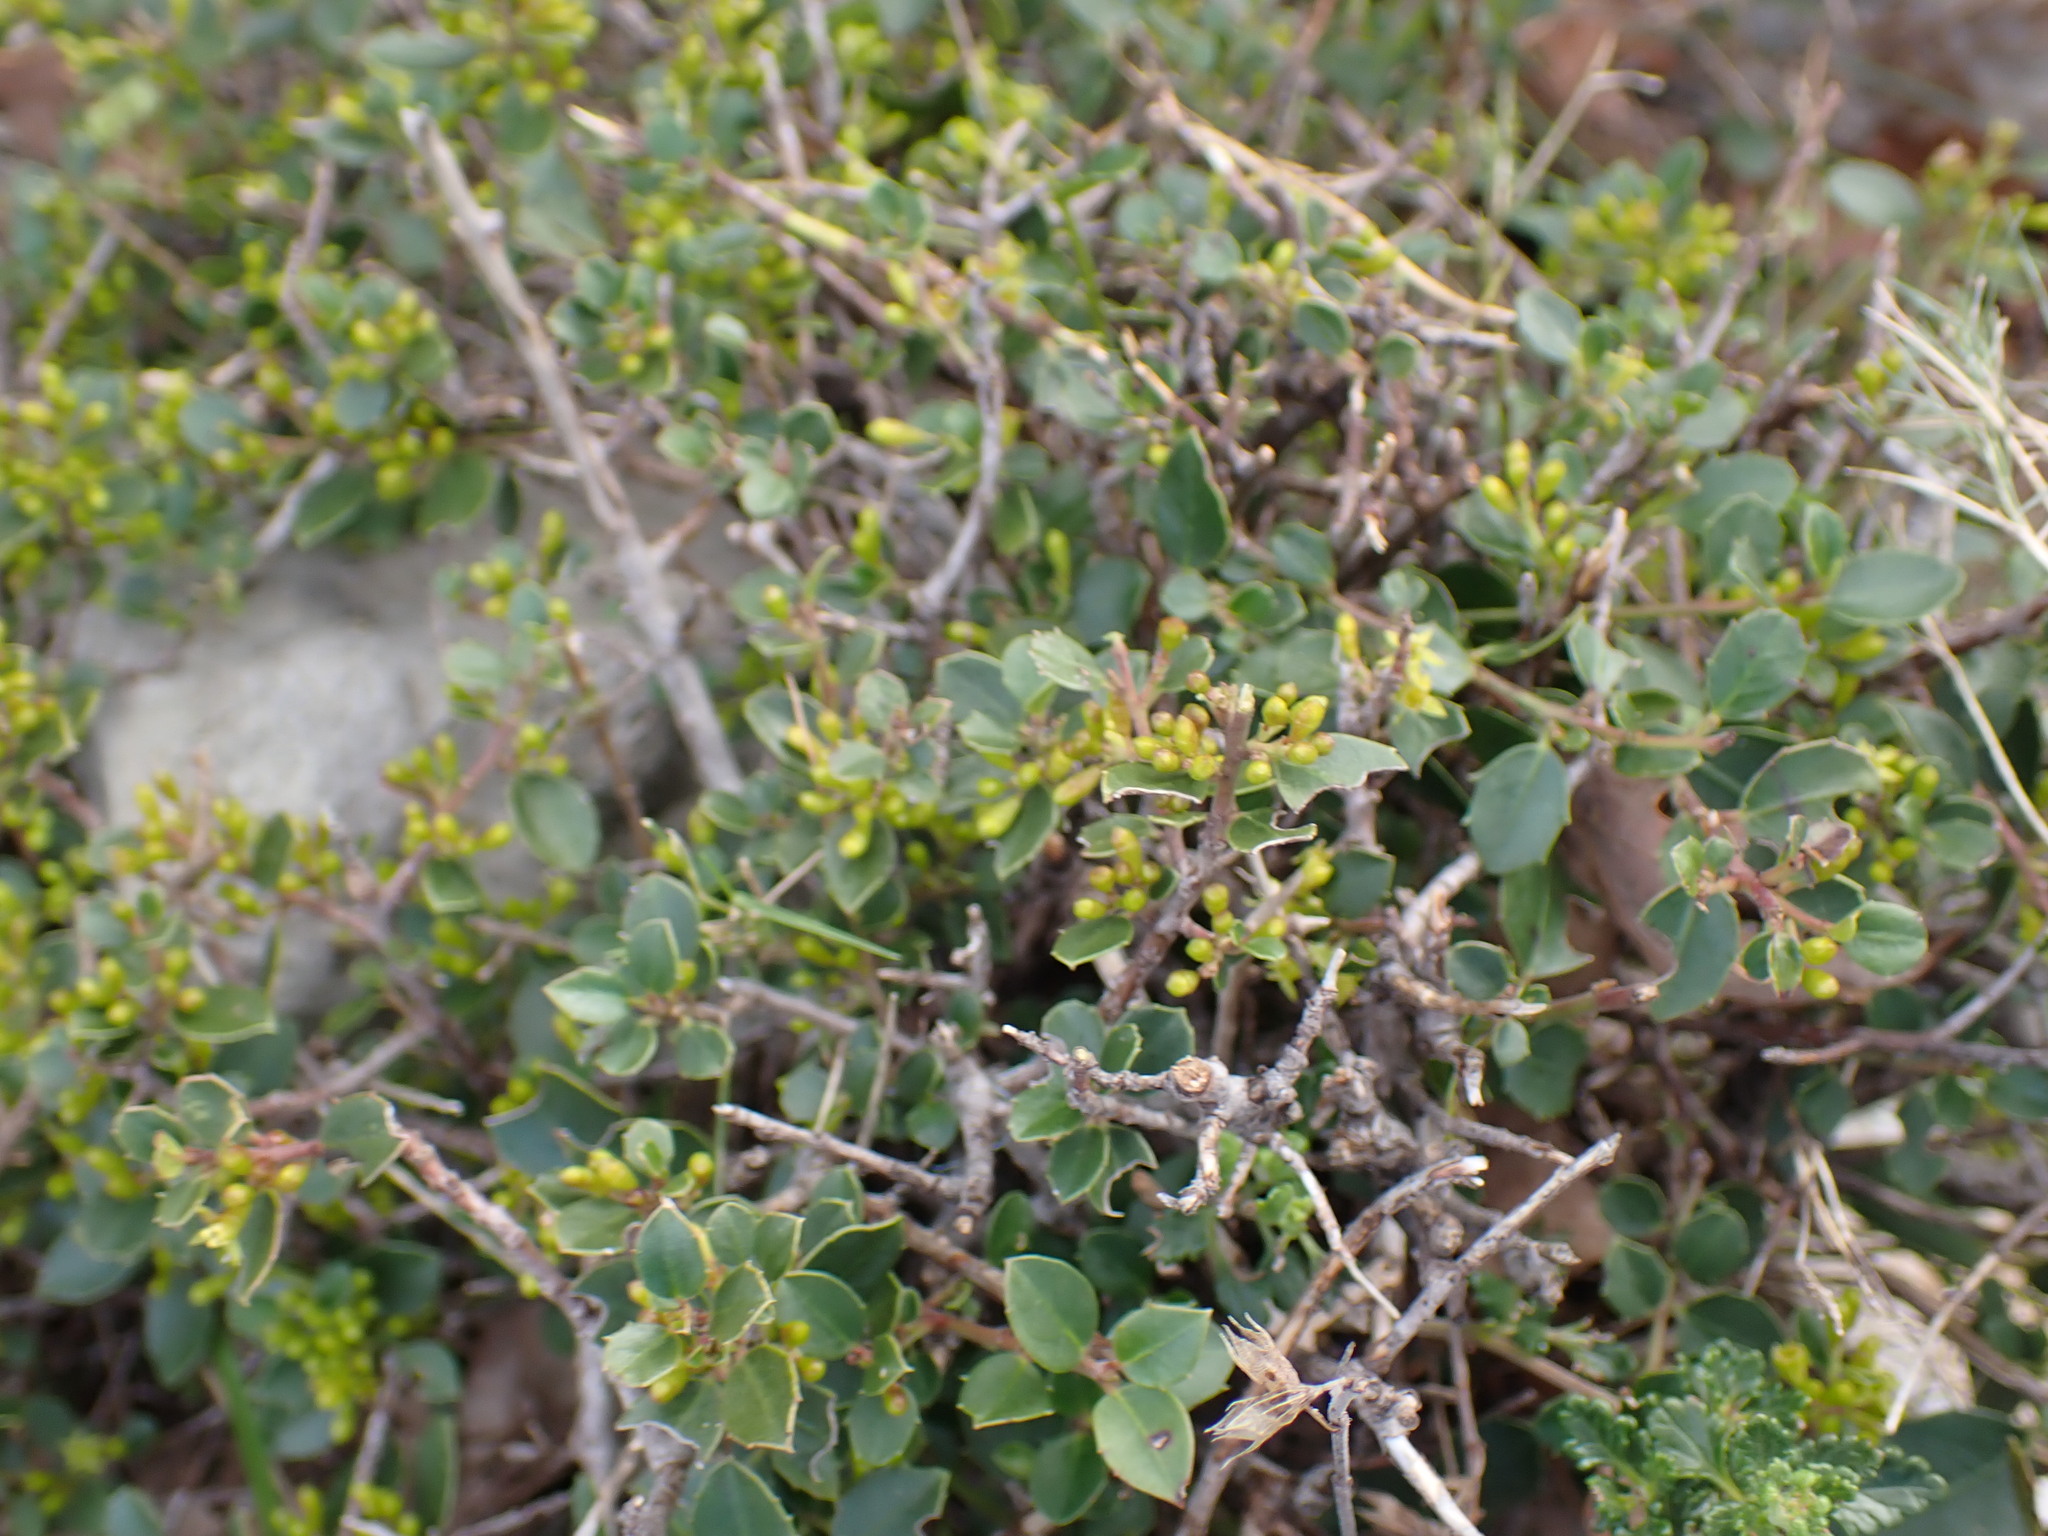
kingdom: Plantae
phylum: Tracheophyta
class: Magnoliopsida
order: Rosales
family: Rhamnaceae
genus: Rhamnus
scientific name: Rhamnus alaternus
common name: Mediterranean buckthorn
